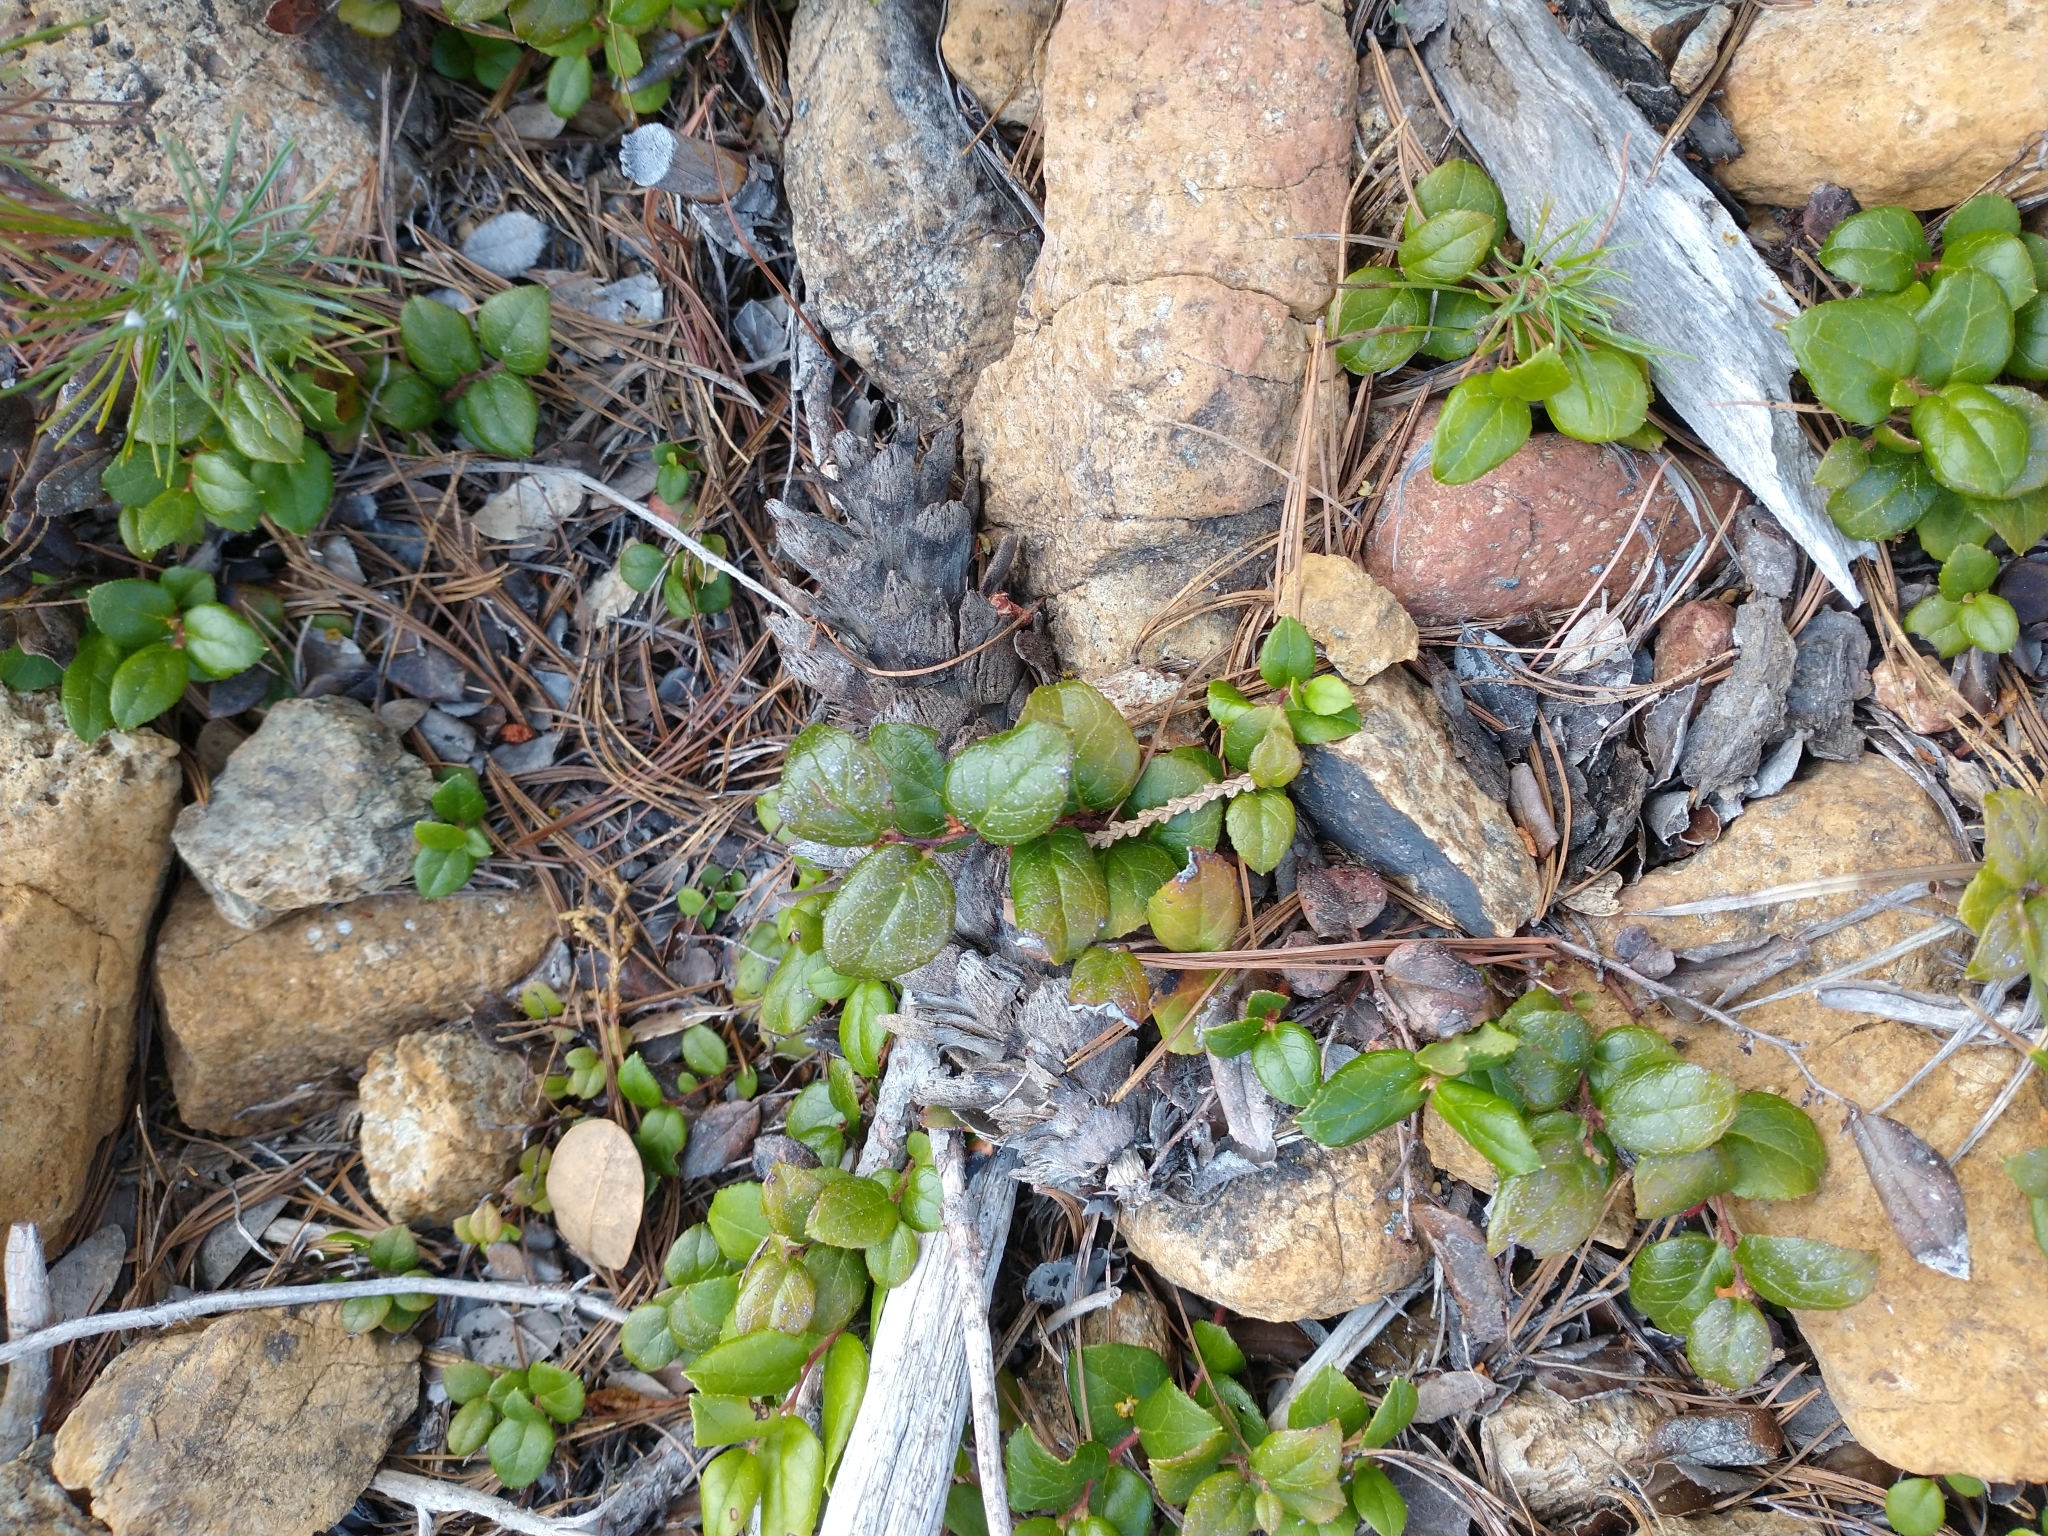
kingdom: Plantae
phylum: Tracheophyta
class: Magnoliopsida
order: Ericales
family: Ericaceae
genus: Gaultheria
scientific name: Gaultheria ovatifolia
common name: Oregon wintergreen
